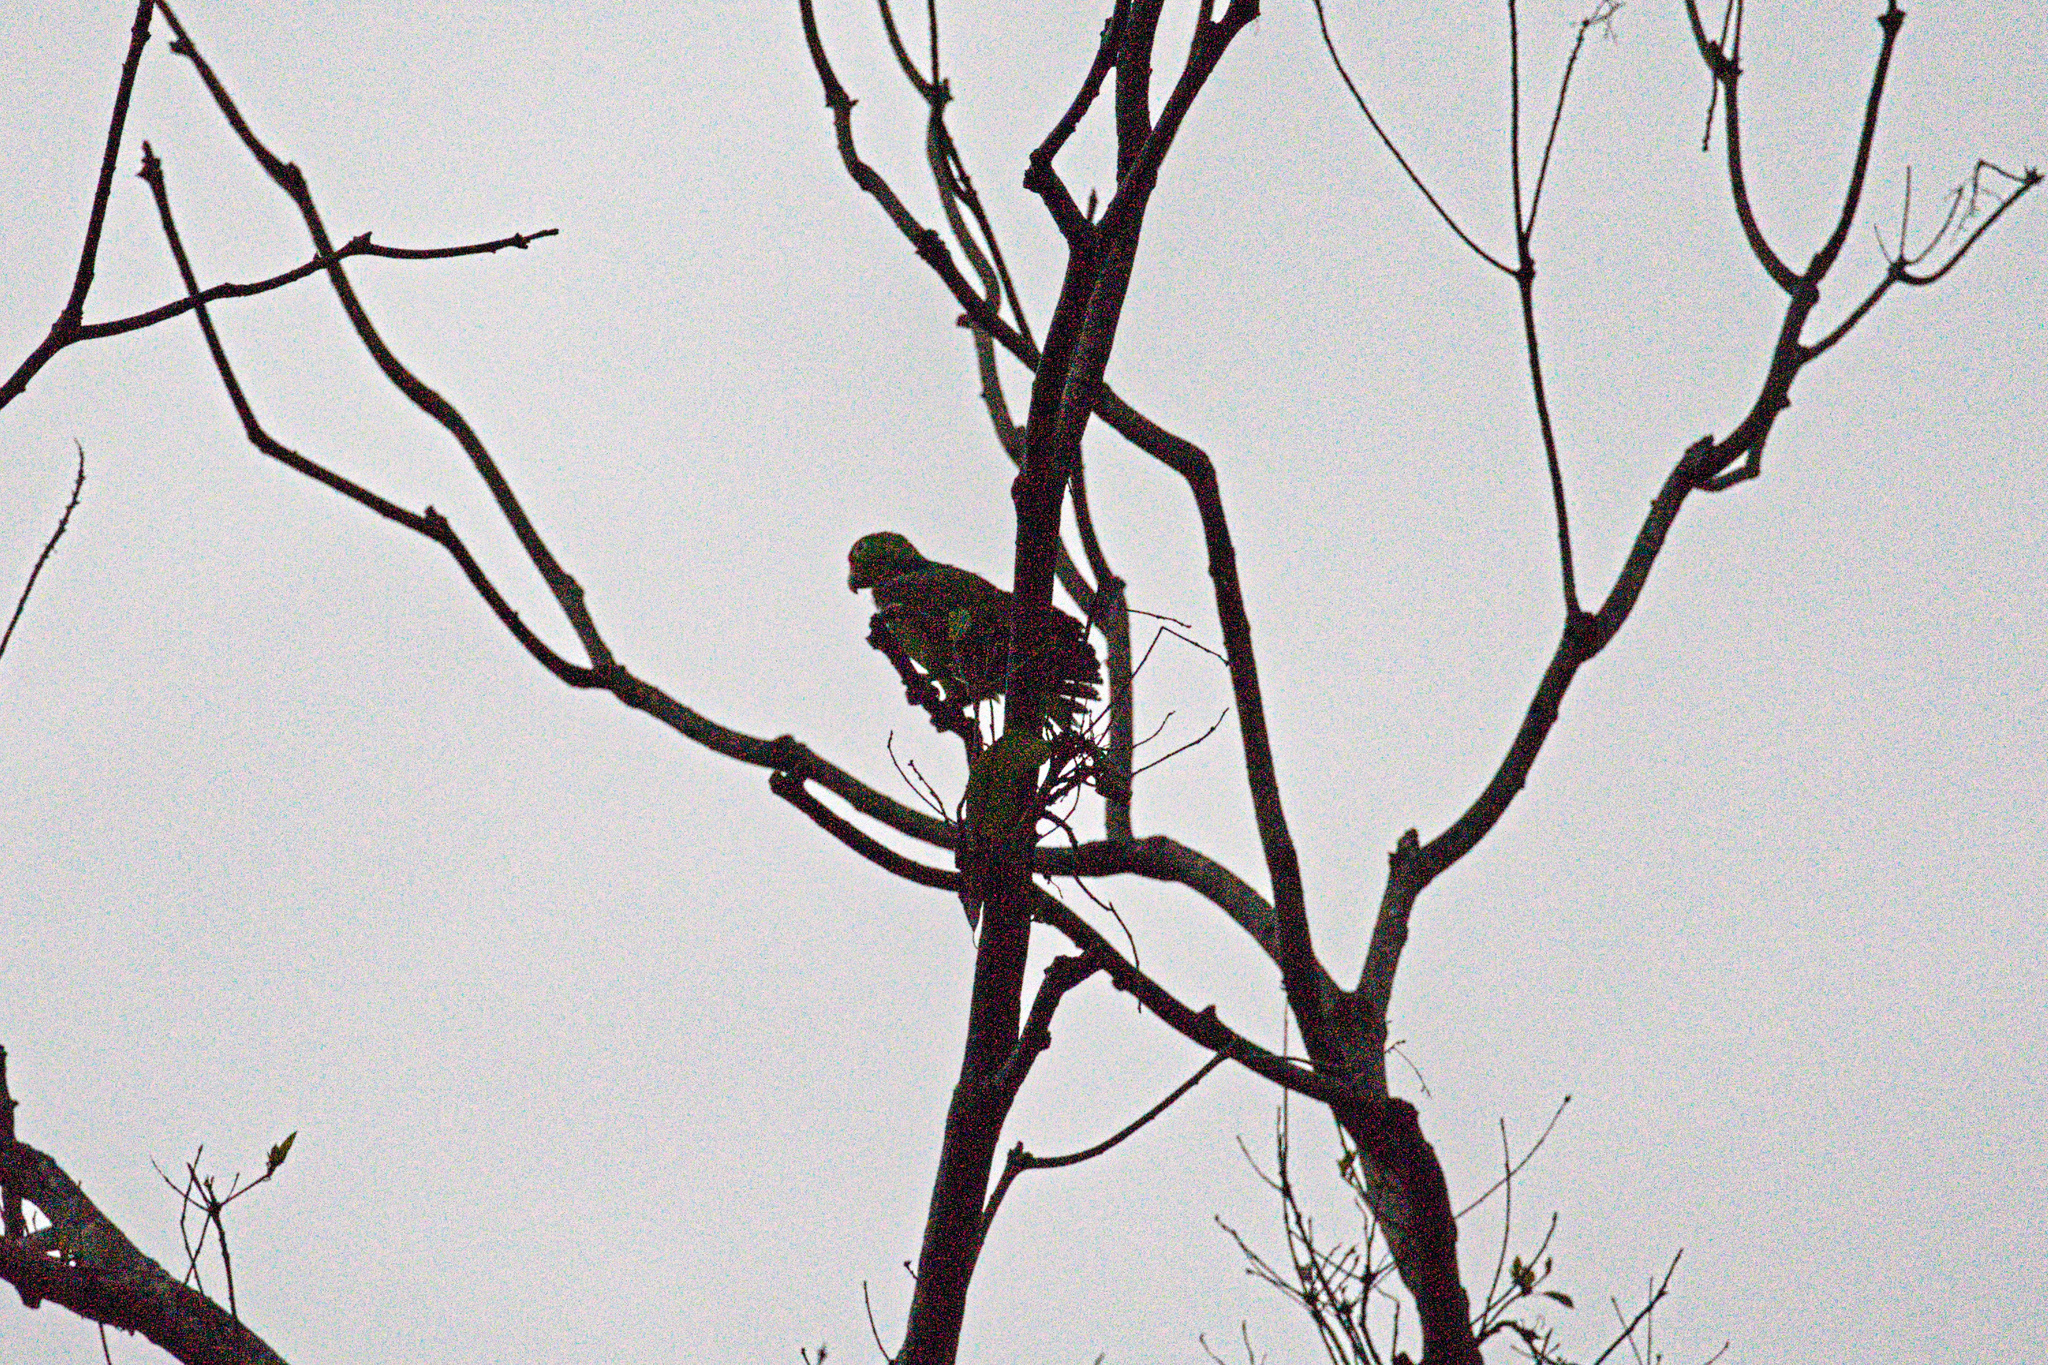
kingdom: Animalia
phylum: Chordata
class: Aves
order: Psittaciformes
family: Psittacidae
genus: Amazona
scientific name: Amazona autumnalis
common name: Red-lored amazon
